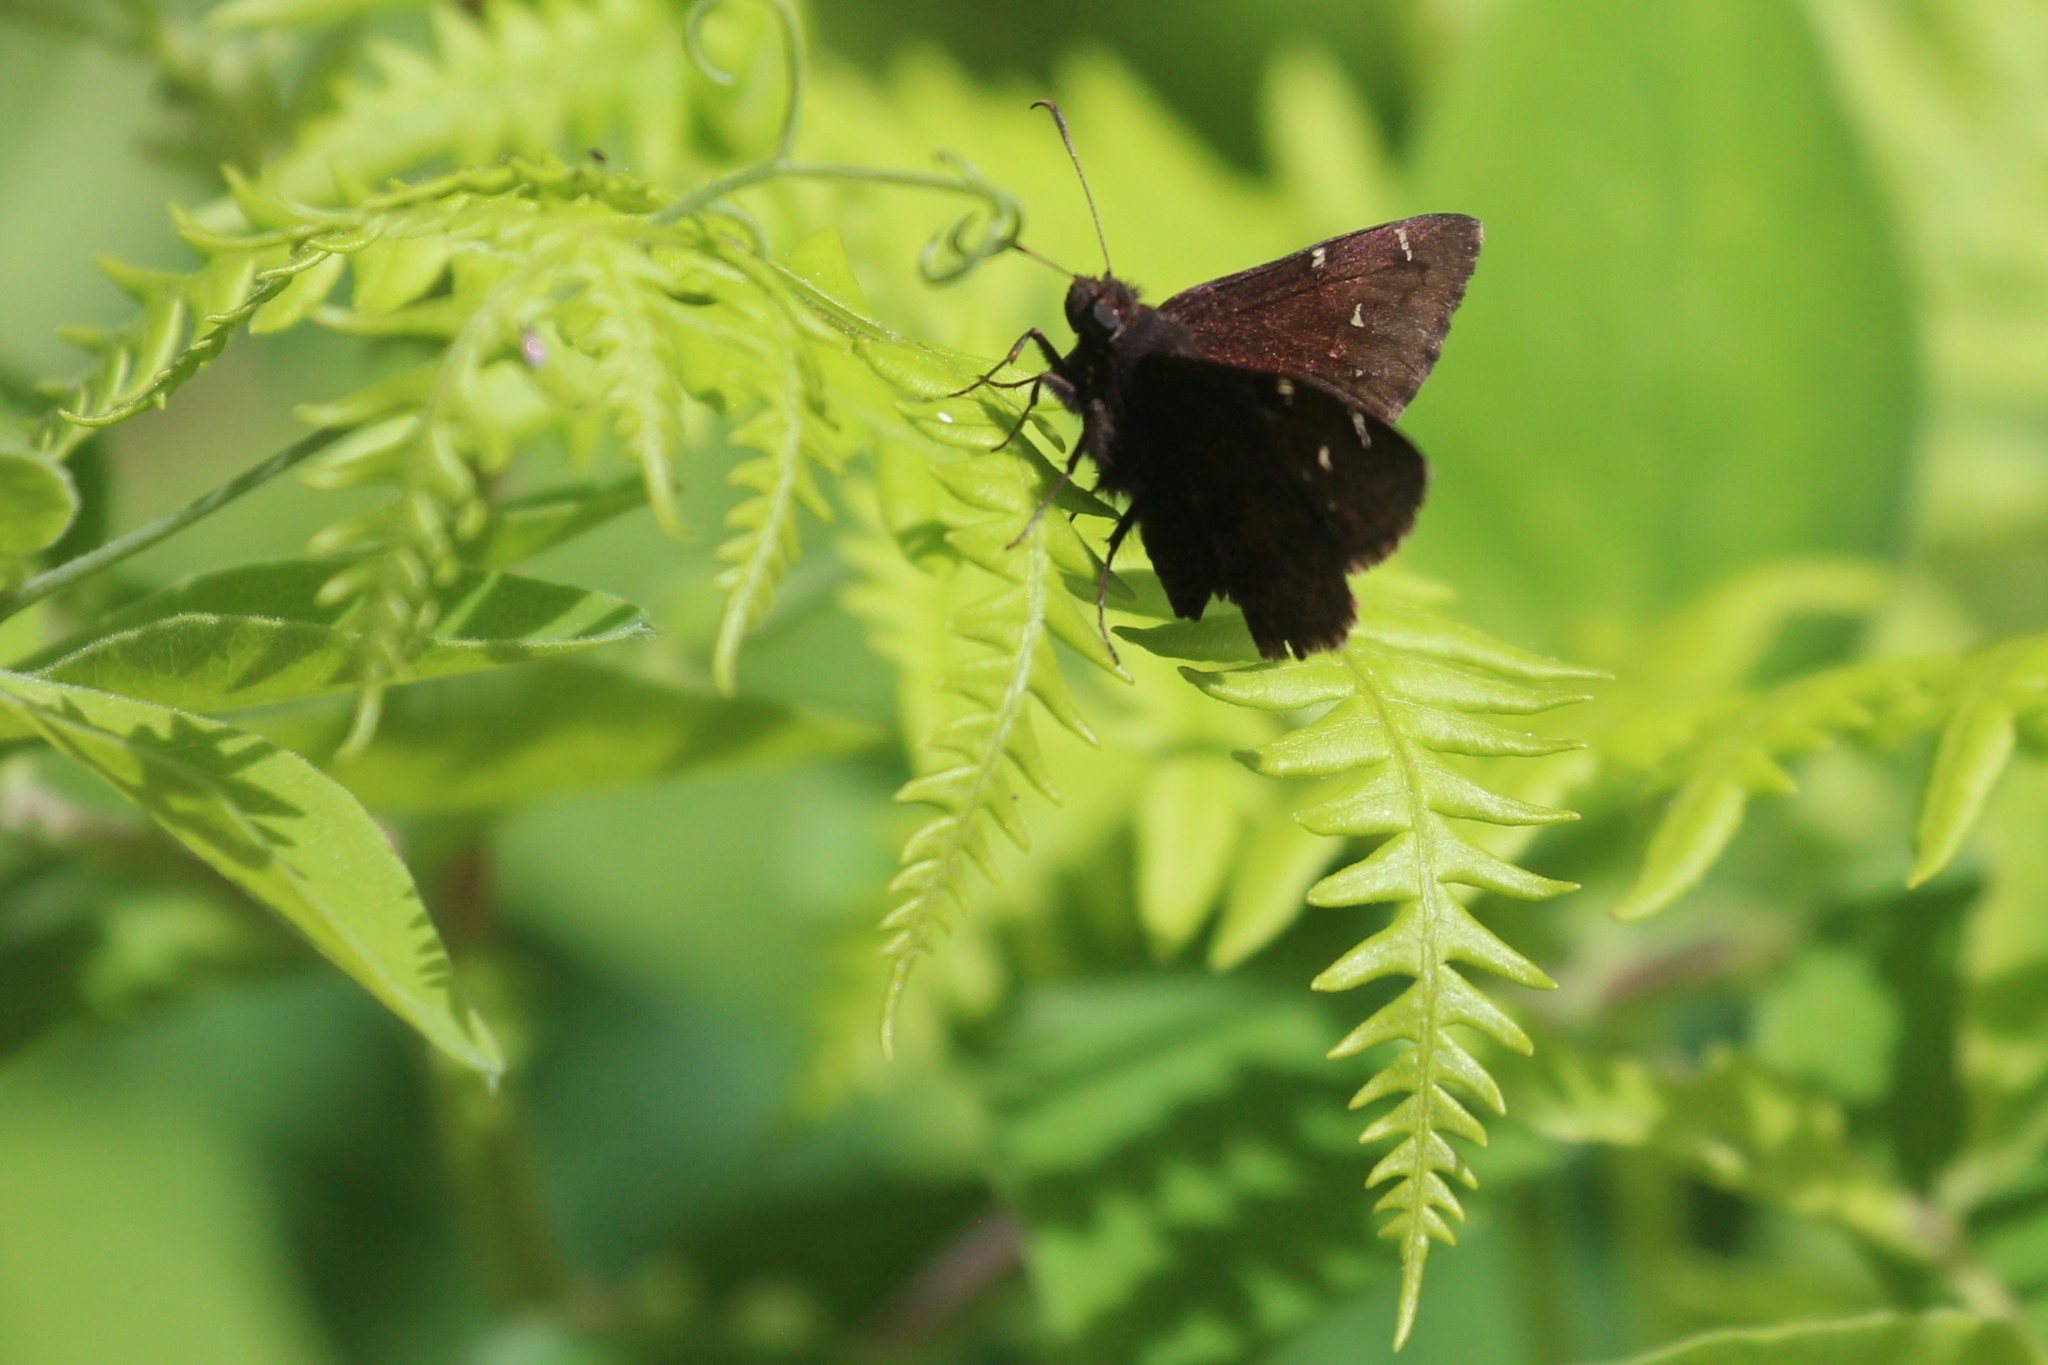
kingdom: Animalia
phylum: Arthropoda
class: Insecta
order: Lepidoptera
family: Hesperiidae
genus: Thorybes
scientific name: Thorybes pylades
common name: Northern cloudywing
